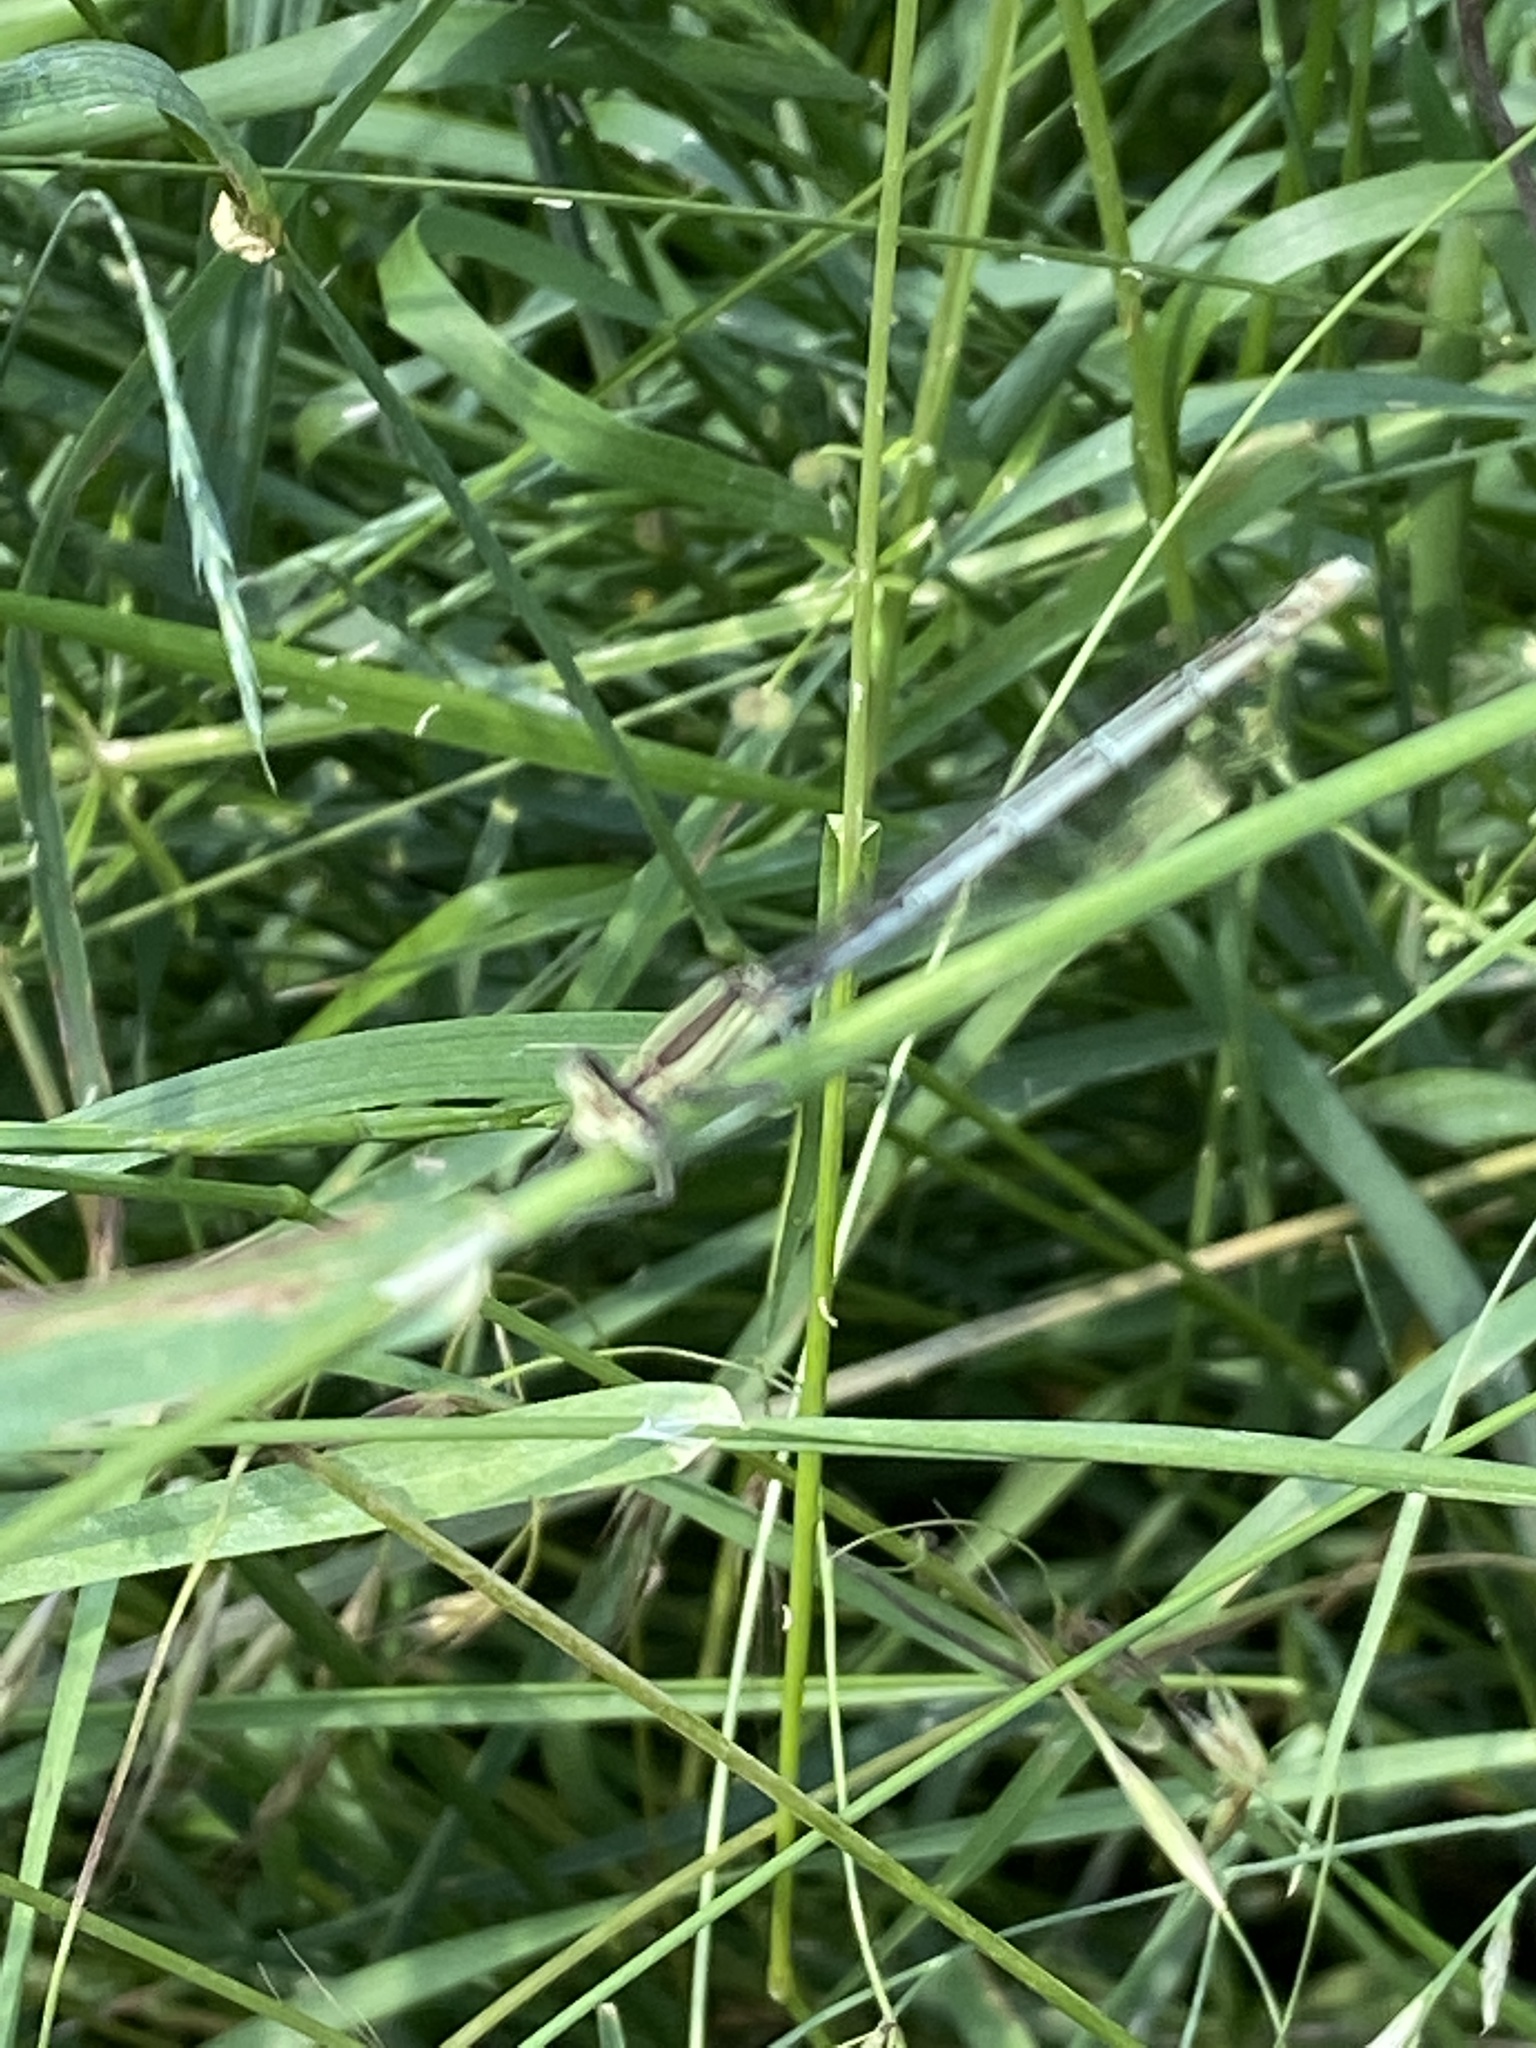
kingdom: Animalia
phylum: Arthropoda
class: Insecta
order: Odonata
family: Platycnemididae
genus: Platycnemis
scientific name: Platycnemis pennipes
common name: White-legged damselfly
